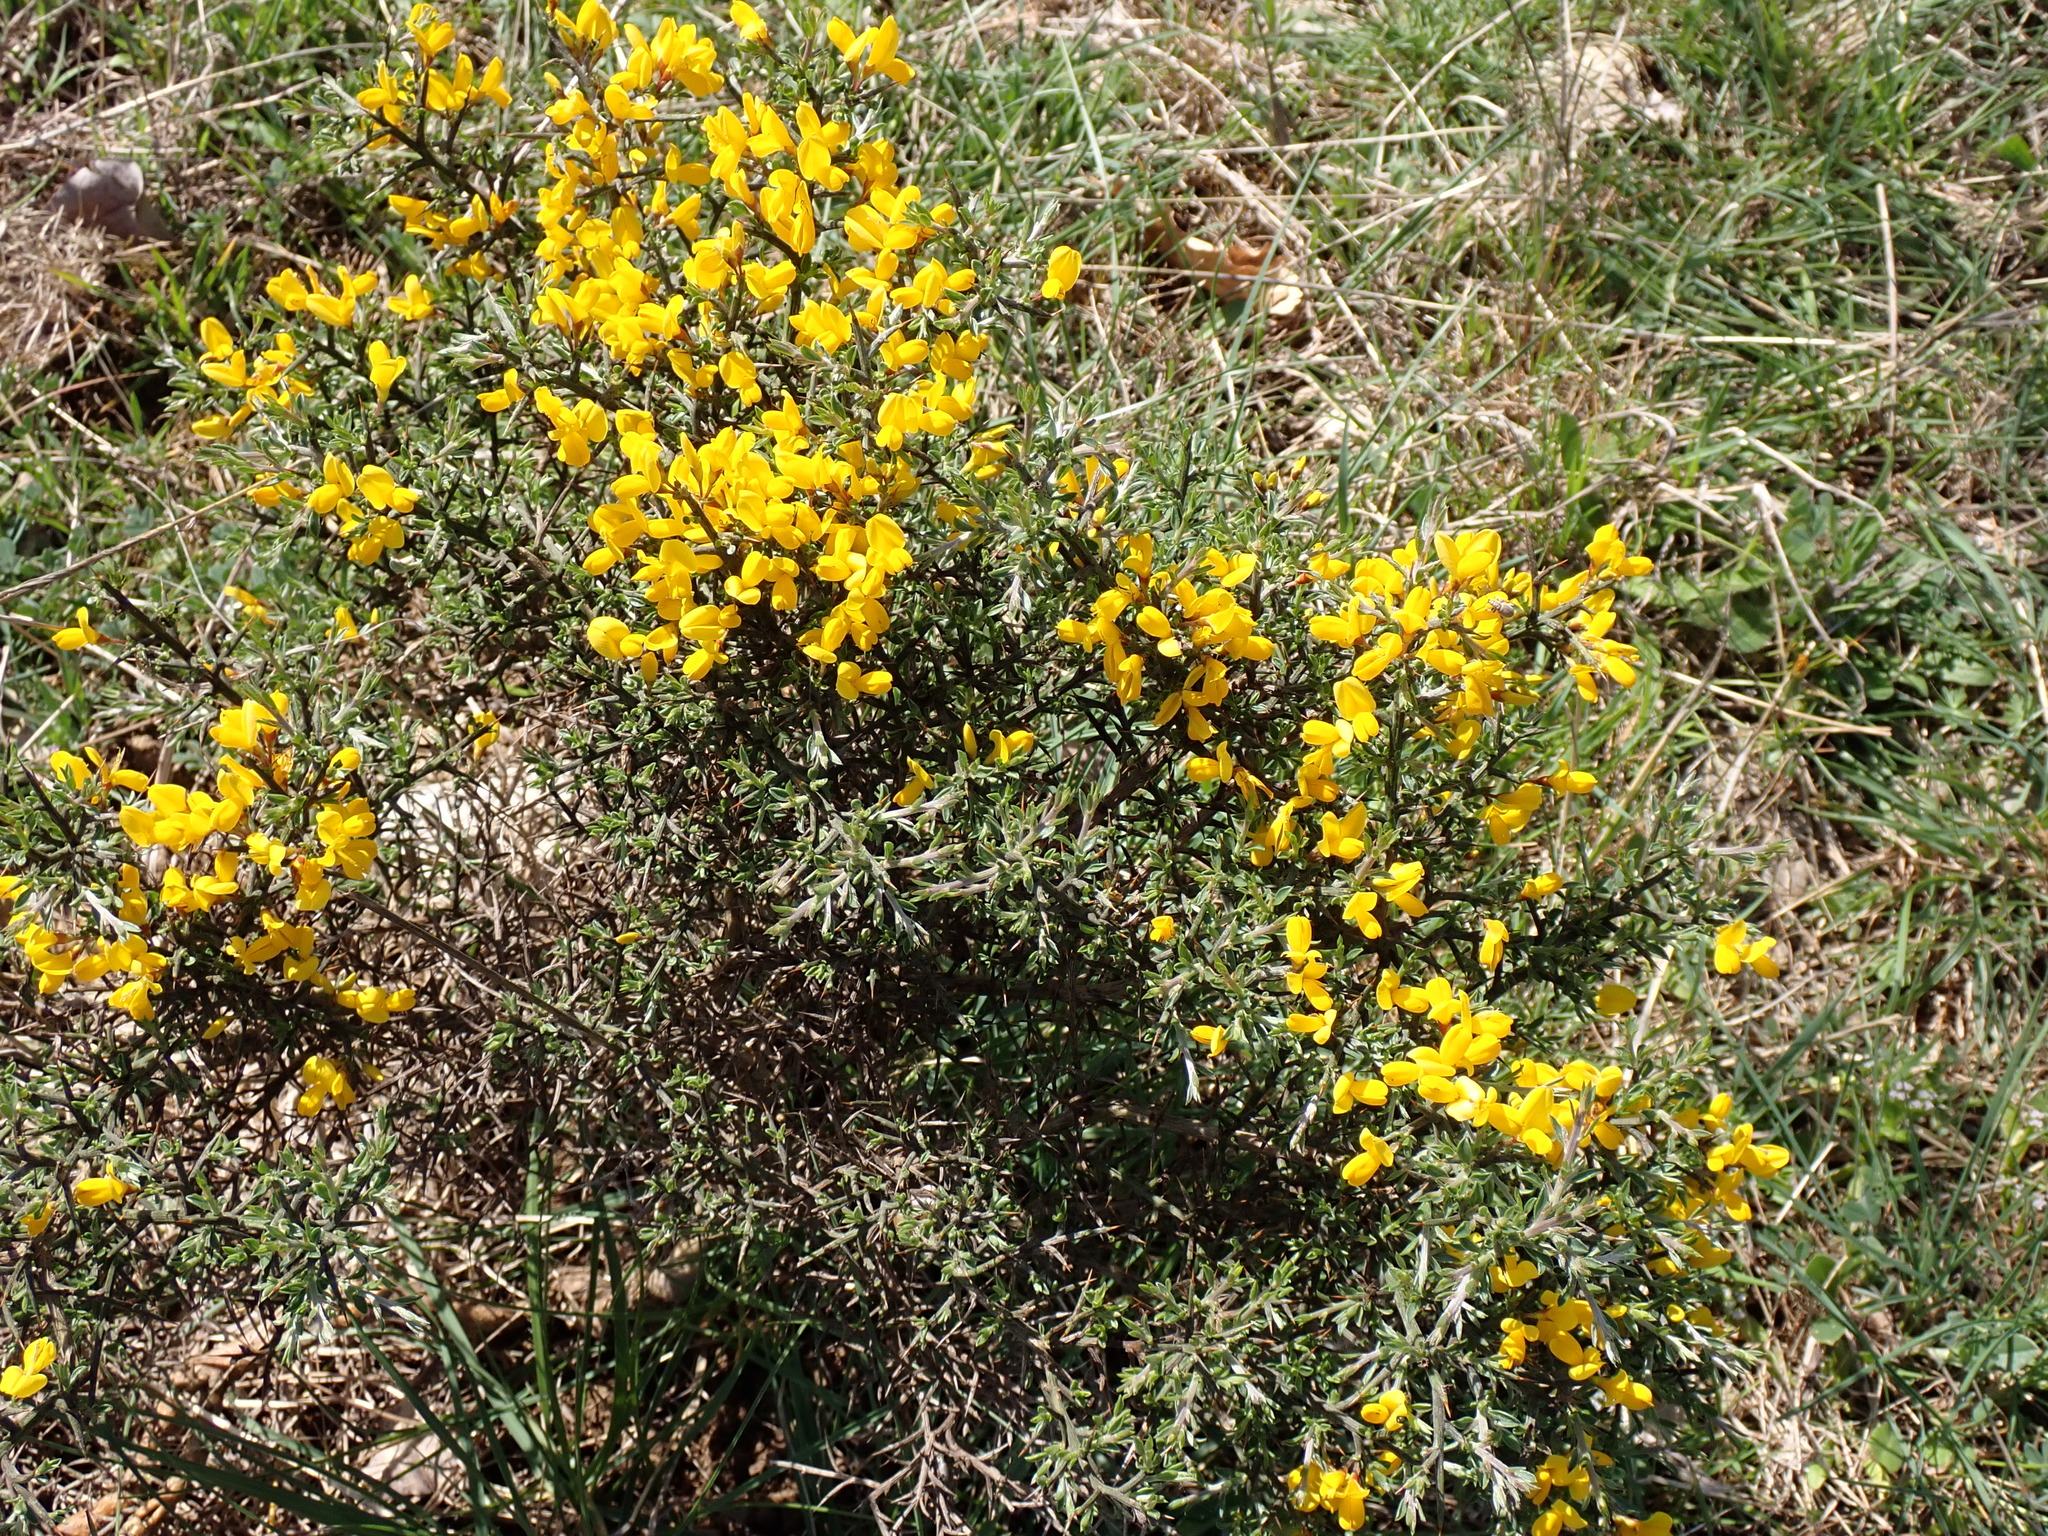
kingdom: Plantae
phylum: Tracheophyta
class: Magnoliopsida
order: Fabales
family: Fabaceae
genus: Genista
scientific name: Genista scorpius
